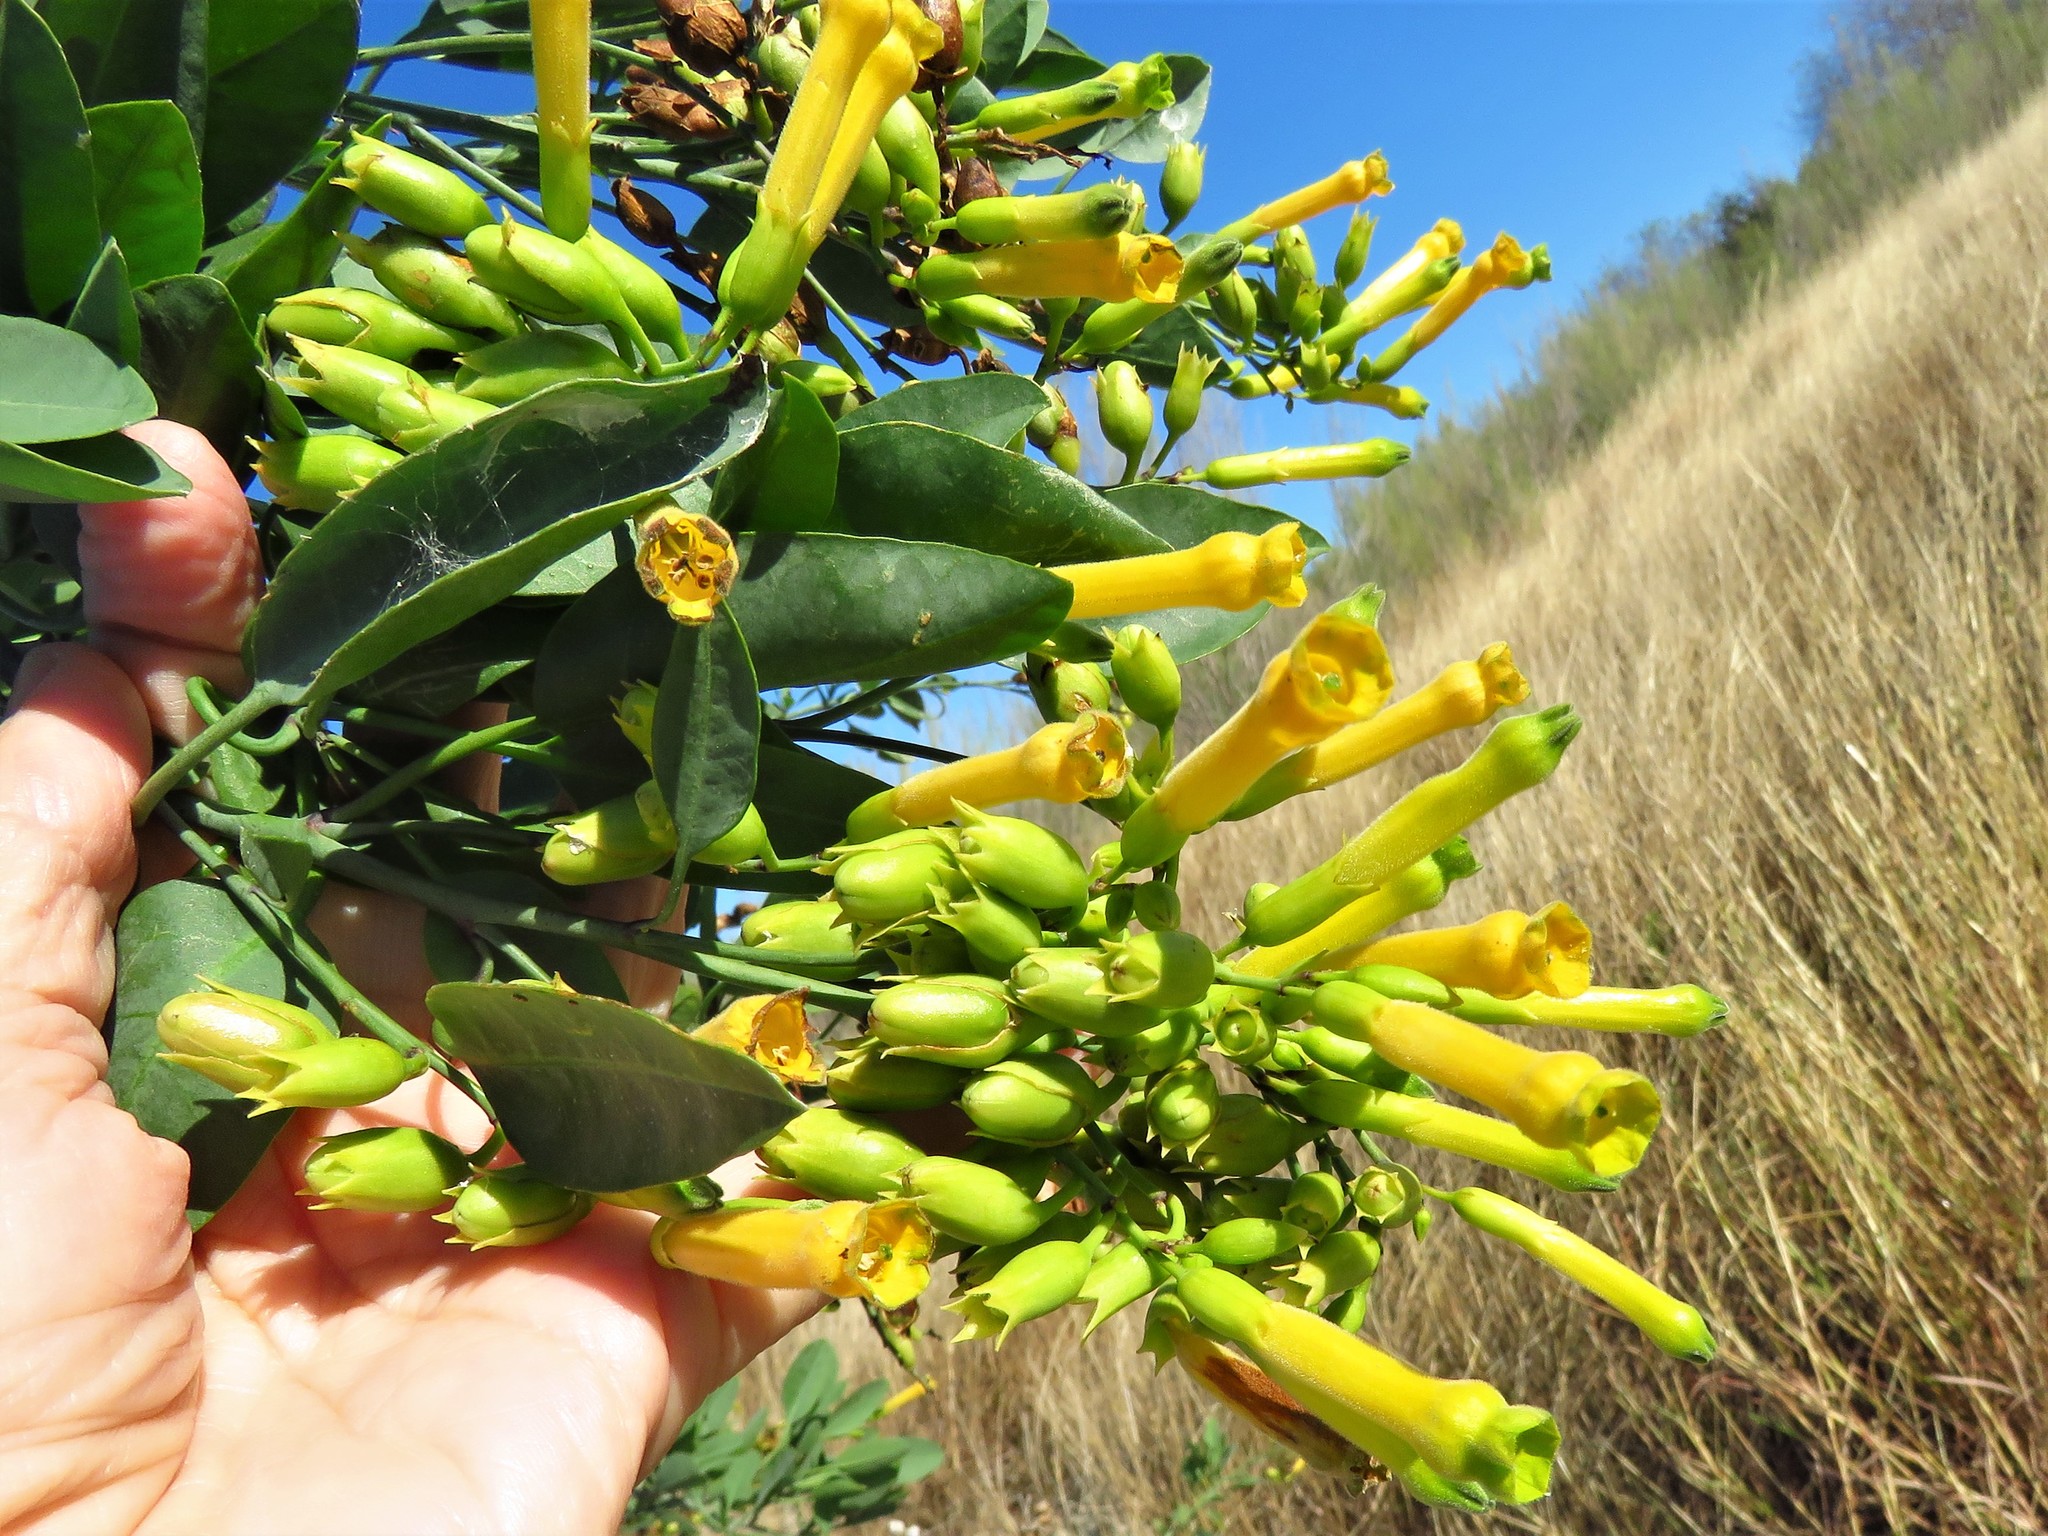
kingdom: Plantae
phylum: Tracheophyta
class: Magnoliopsida
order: Solanales
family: Solanaceae
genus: Nicotiana
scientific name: Nicotiana glauca
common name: Tree tobacco
